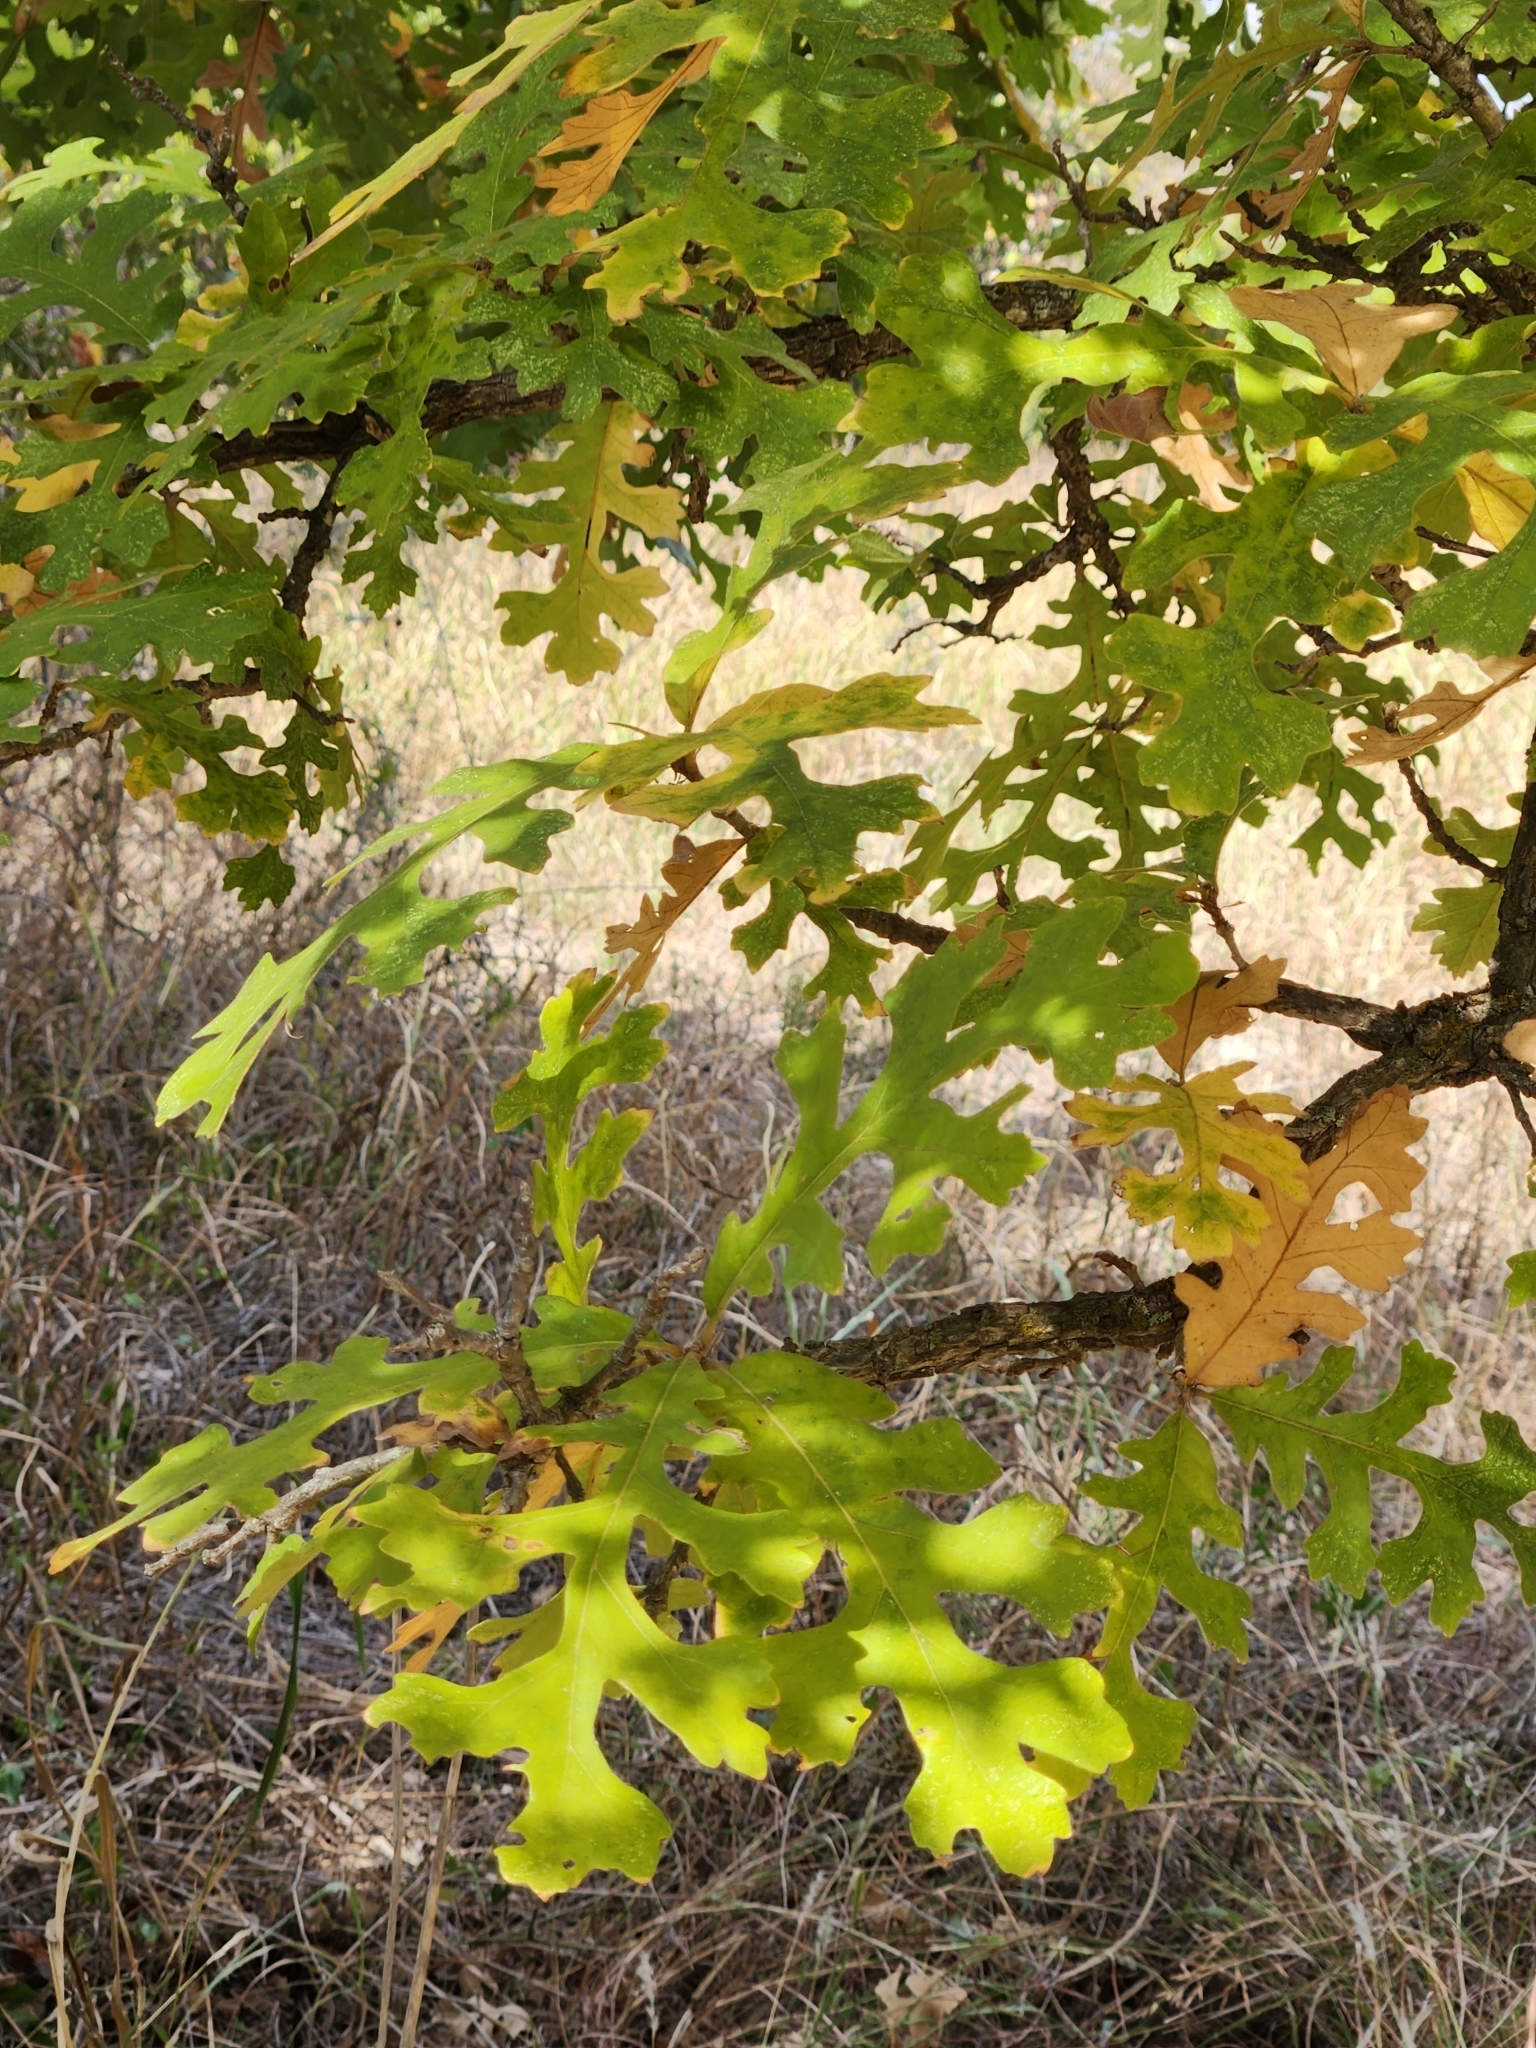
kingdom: Plantae
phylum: Tracheophyta
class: Magnoliopsida
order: Fagales
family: Fagaceae
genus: Quercus
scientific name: Quercus macrocarpa
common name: Bur oak
